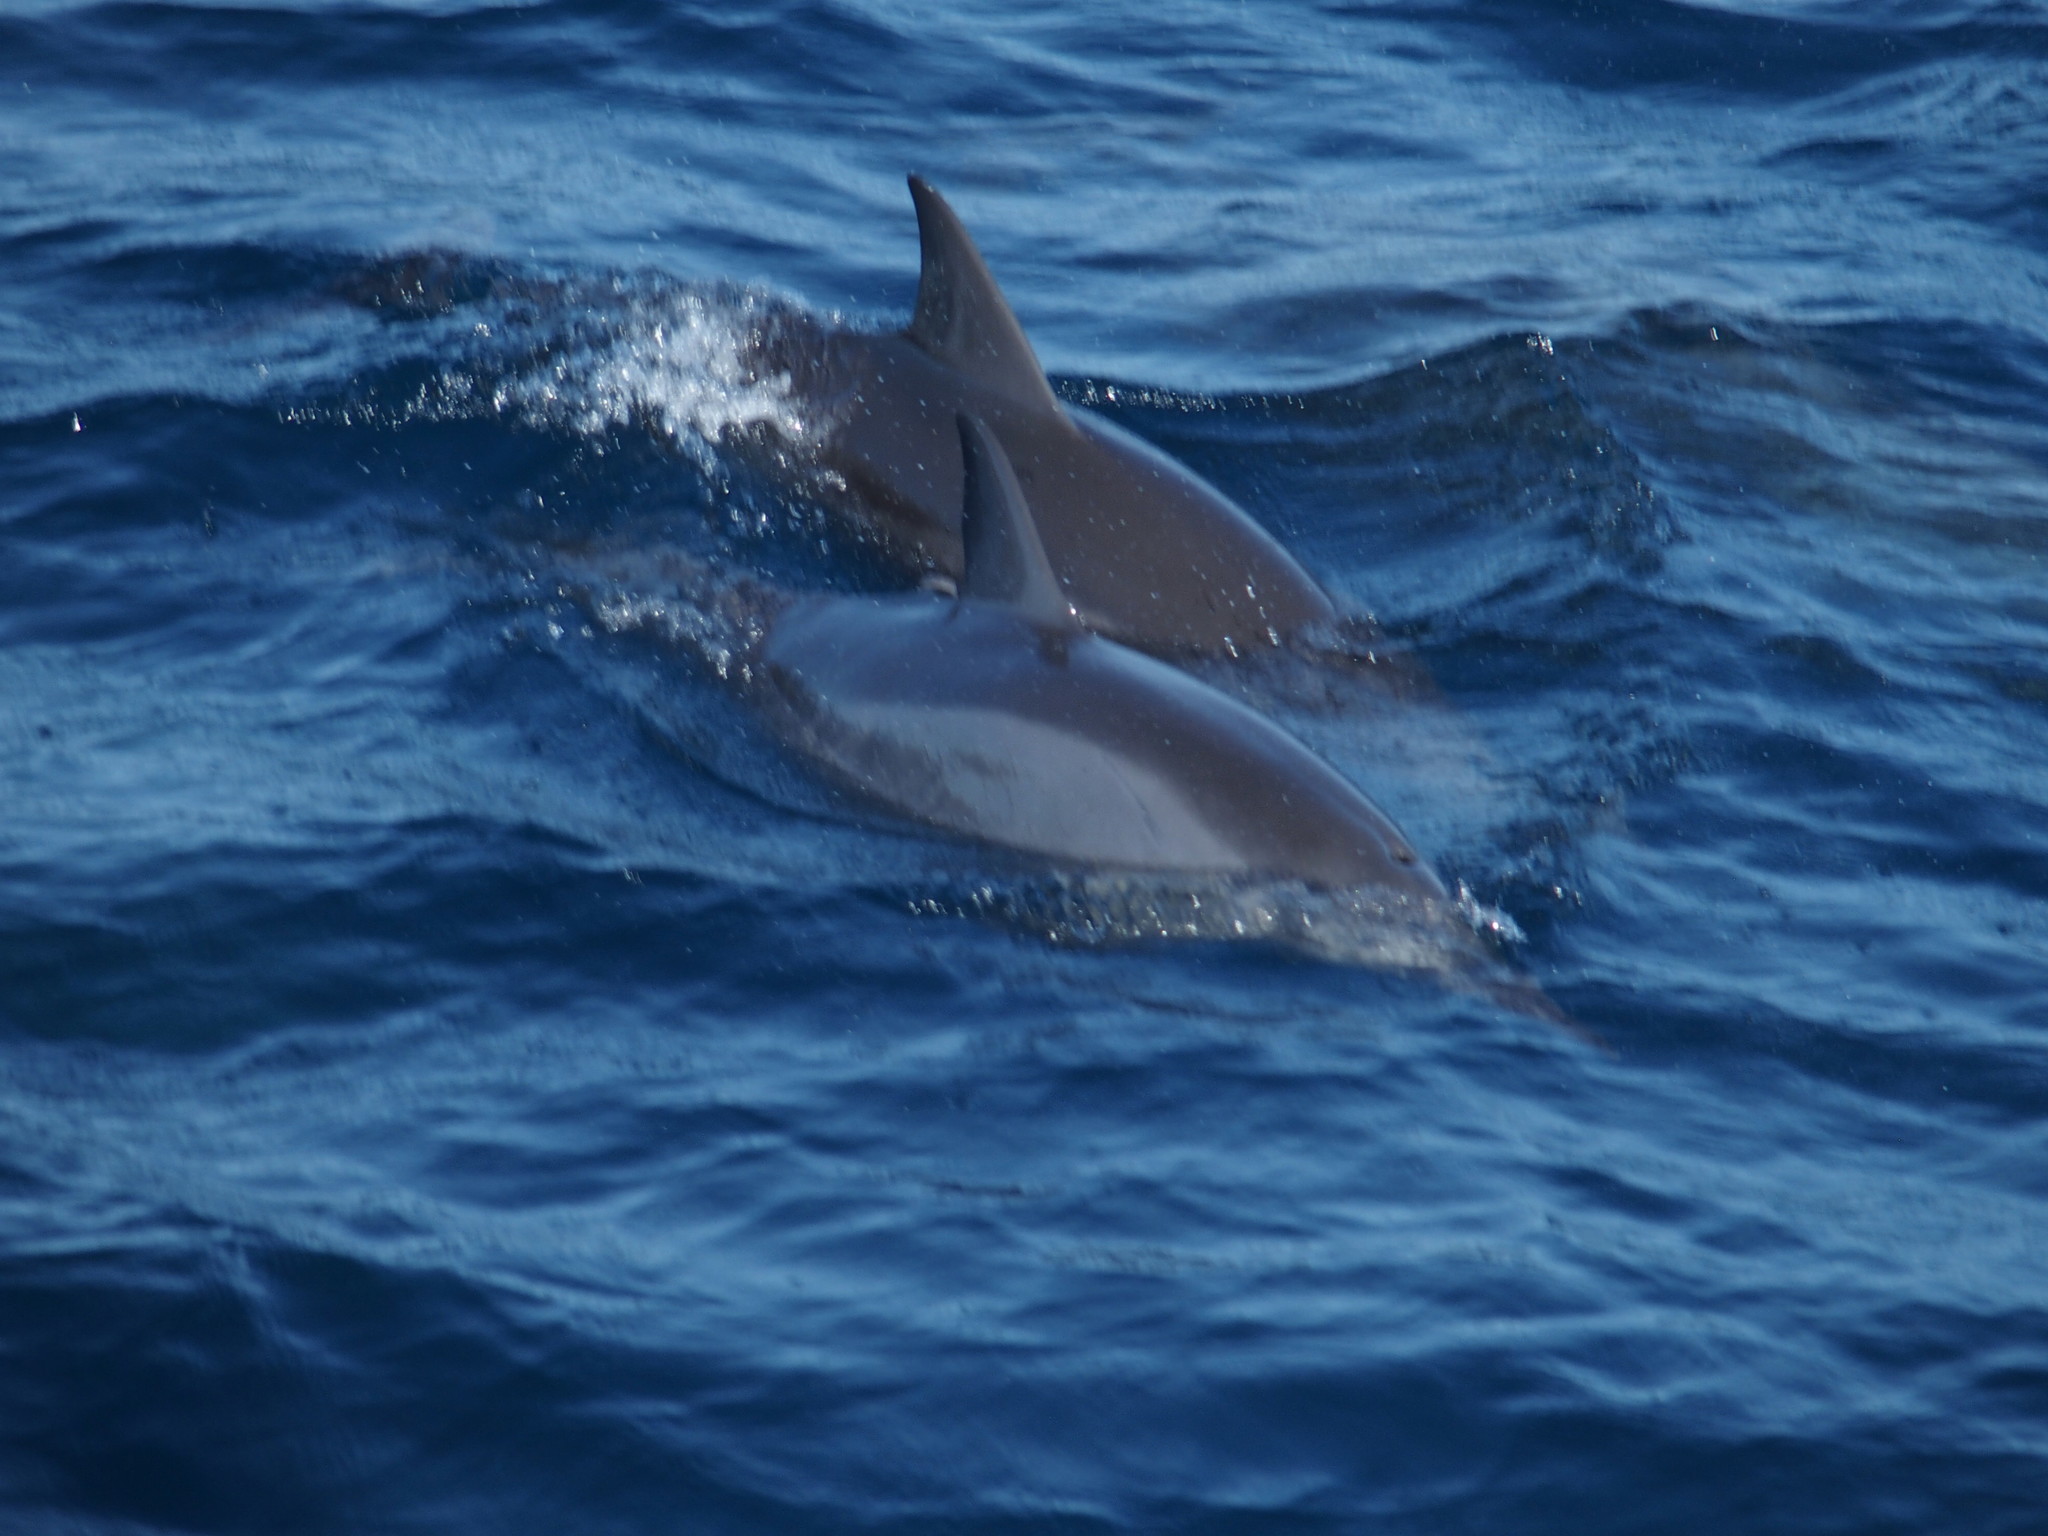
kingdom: Animalia
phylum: Chordata
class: Mammalia
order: Cetacea
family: Delphinidae
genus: Stenella
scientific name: Stenella longirostris
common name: Spinner dolphin
